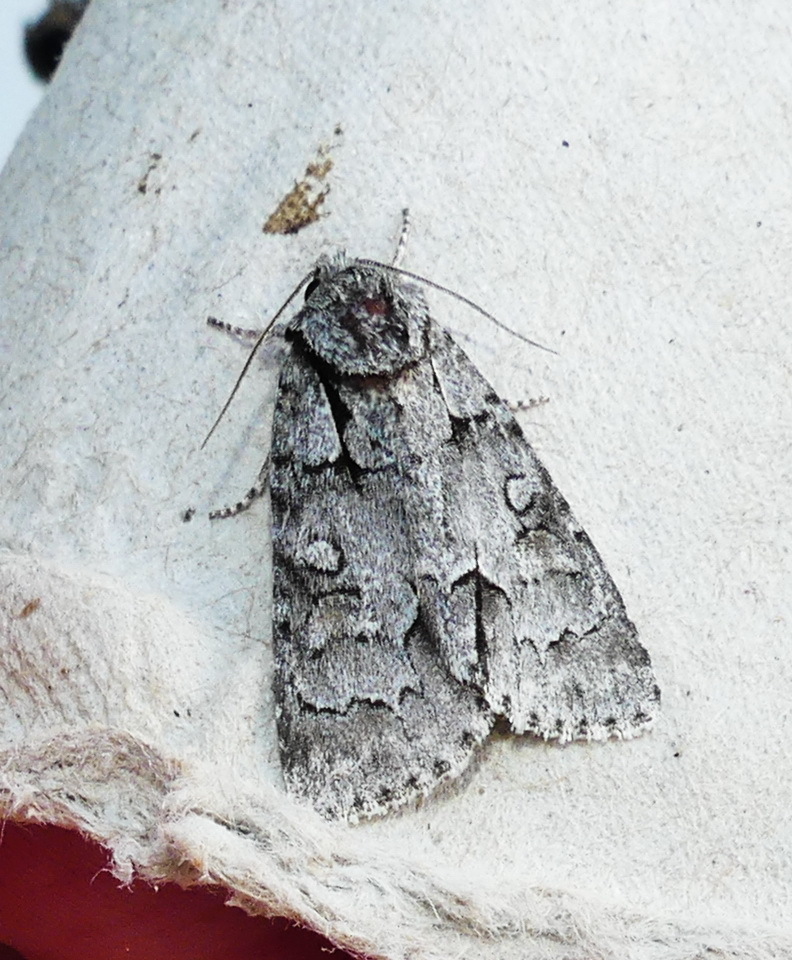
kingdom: Animalia
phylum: Arthropoda
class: Insecta
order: Lepidoptera
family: Noctuidae
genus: Acronicta
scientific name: Acronicta grisea
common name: Gray dagger
